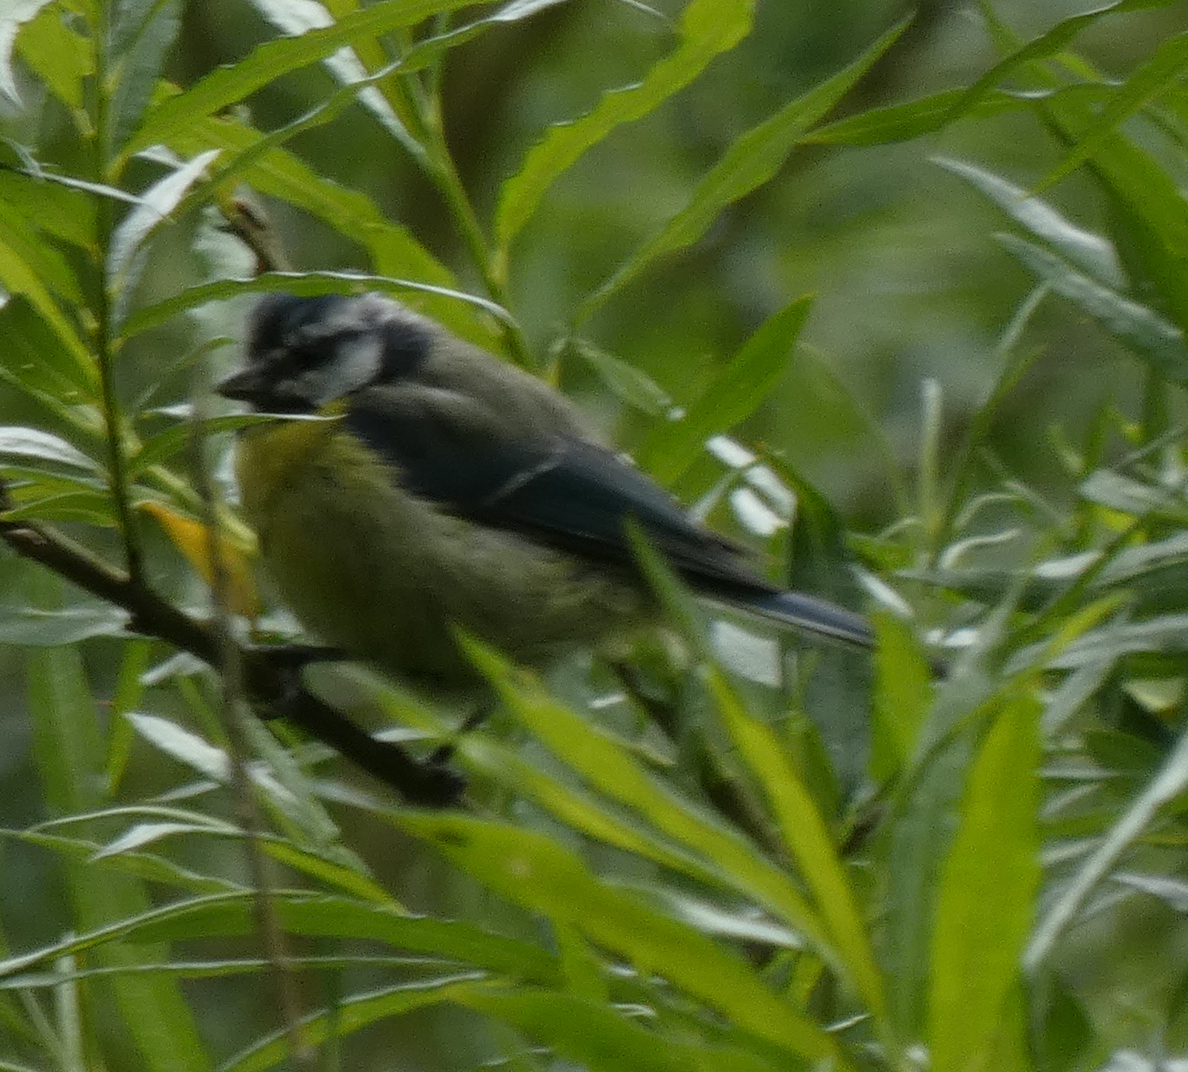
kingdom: Animalia
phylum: Chordata
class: Aves
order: Passeriformes
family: Paridae
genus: Cyanistes
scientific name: Cyanistes caeruleus
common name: Eurasian blue tit
